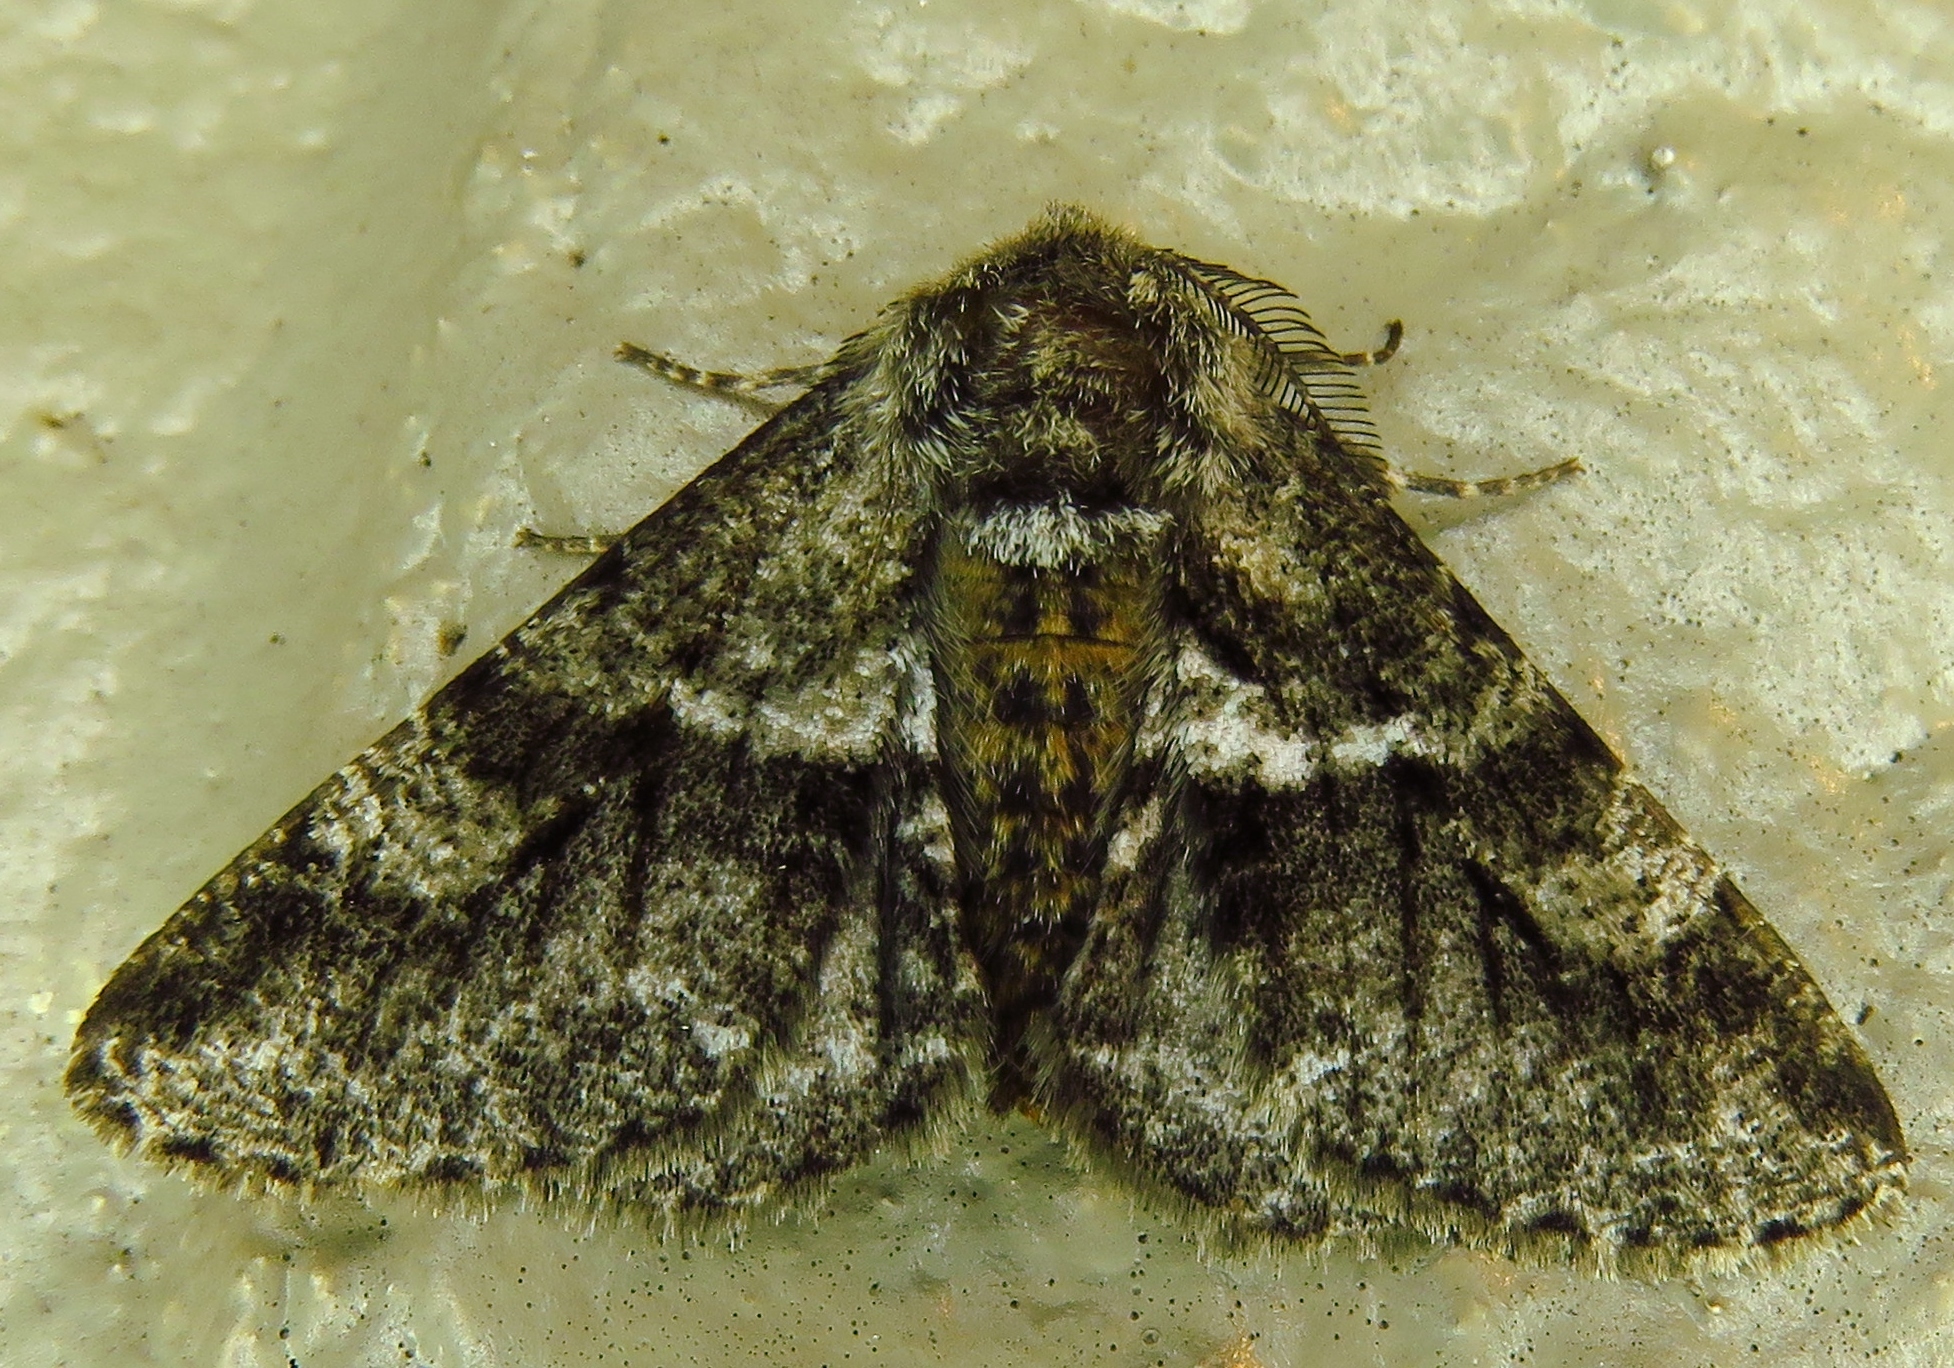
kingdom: Animalia
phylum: Arthropoda
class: Insecta
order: Lepidoptera
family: Geometridae
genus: Lycia
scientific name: Lycia ypsilon
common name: Wooly gray
